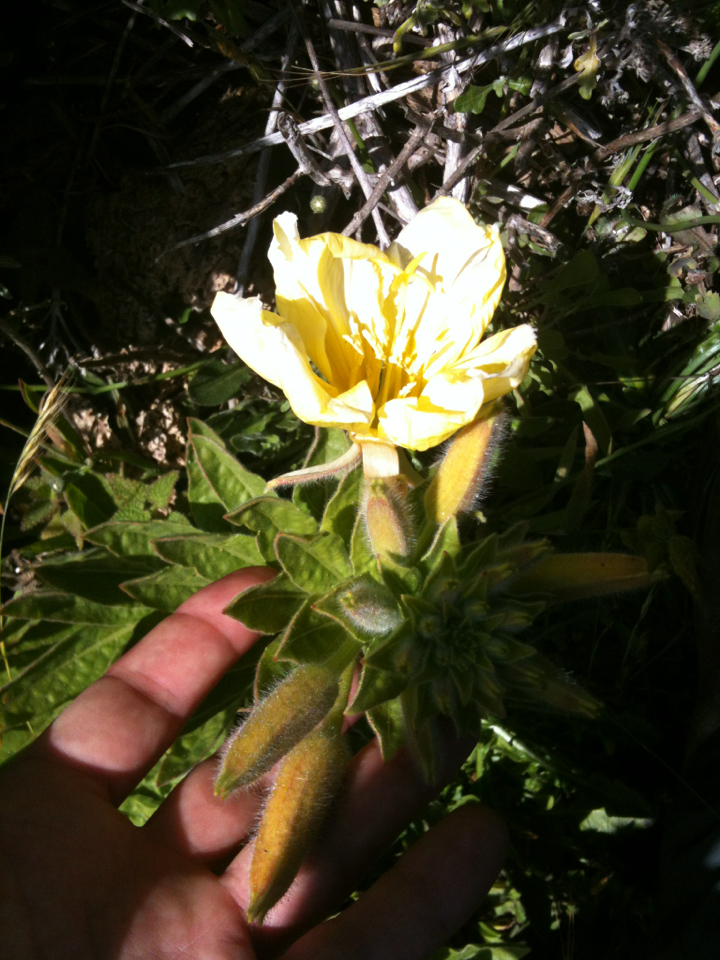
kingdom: Plantae
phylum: Tracheophyta
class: Magnoliopsida
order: Myrtales
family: Onagraceae
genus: Oenothera
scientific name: Oenothera elata
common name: Hooker's evening-primrose
